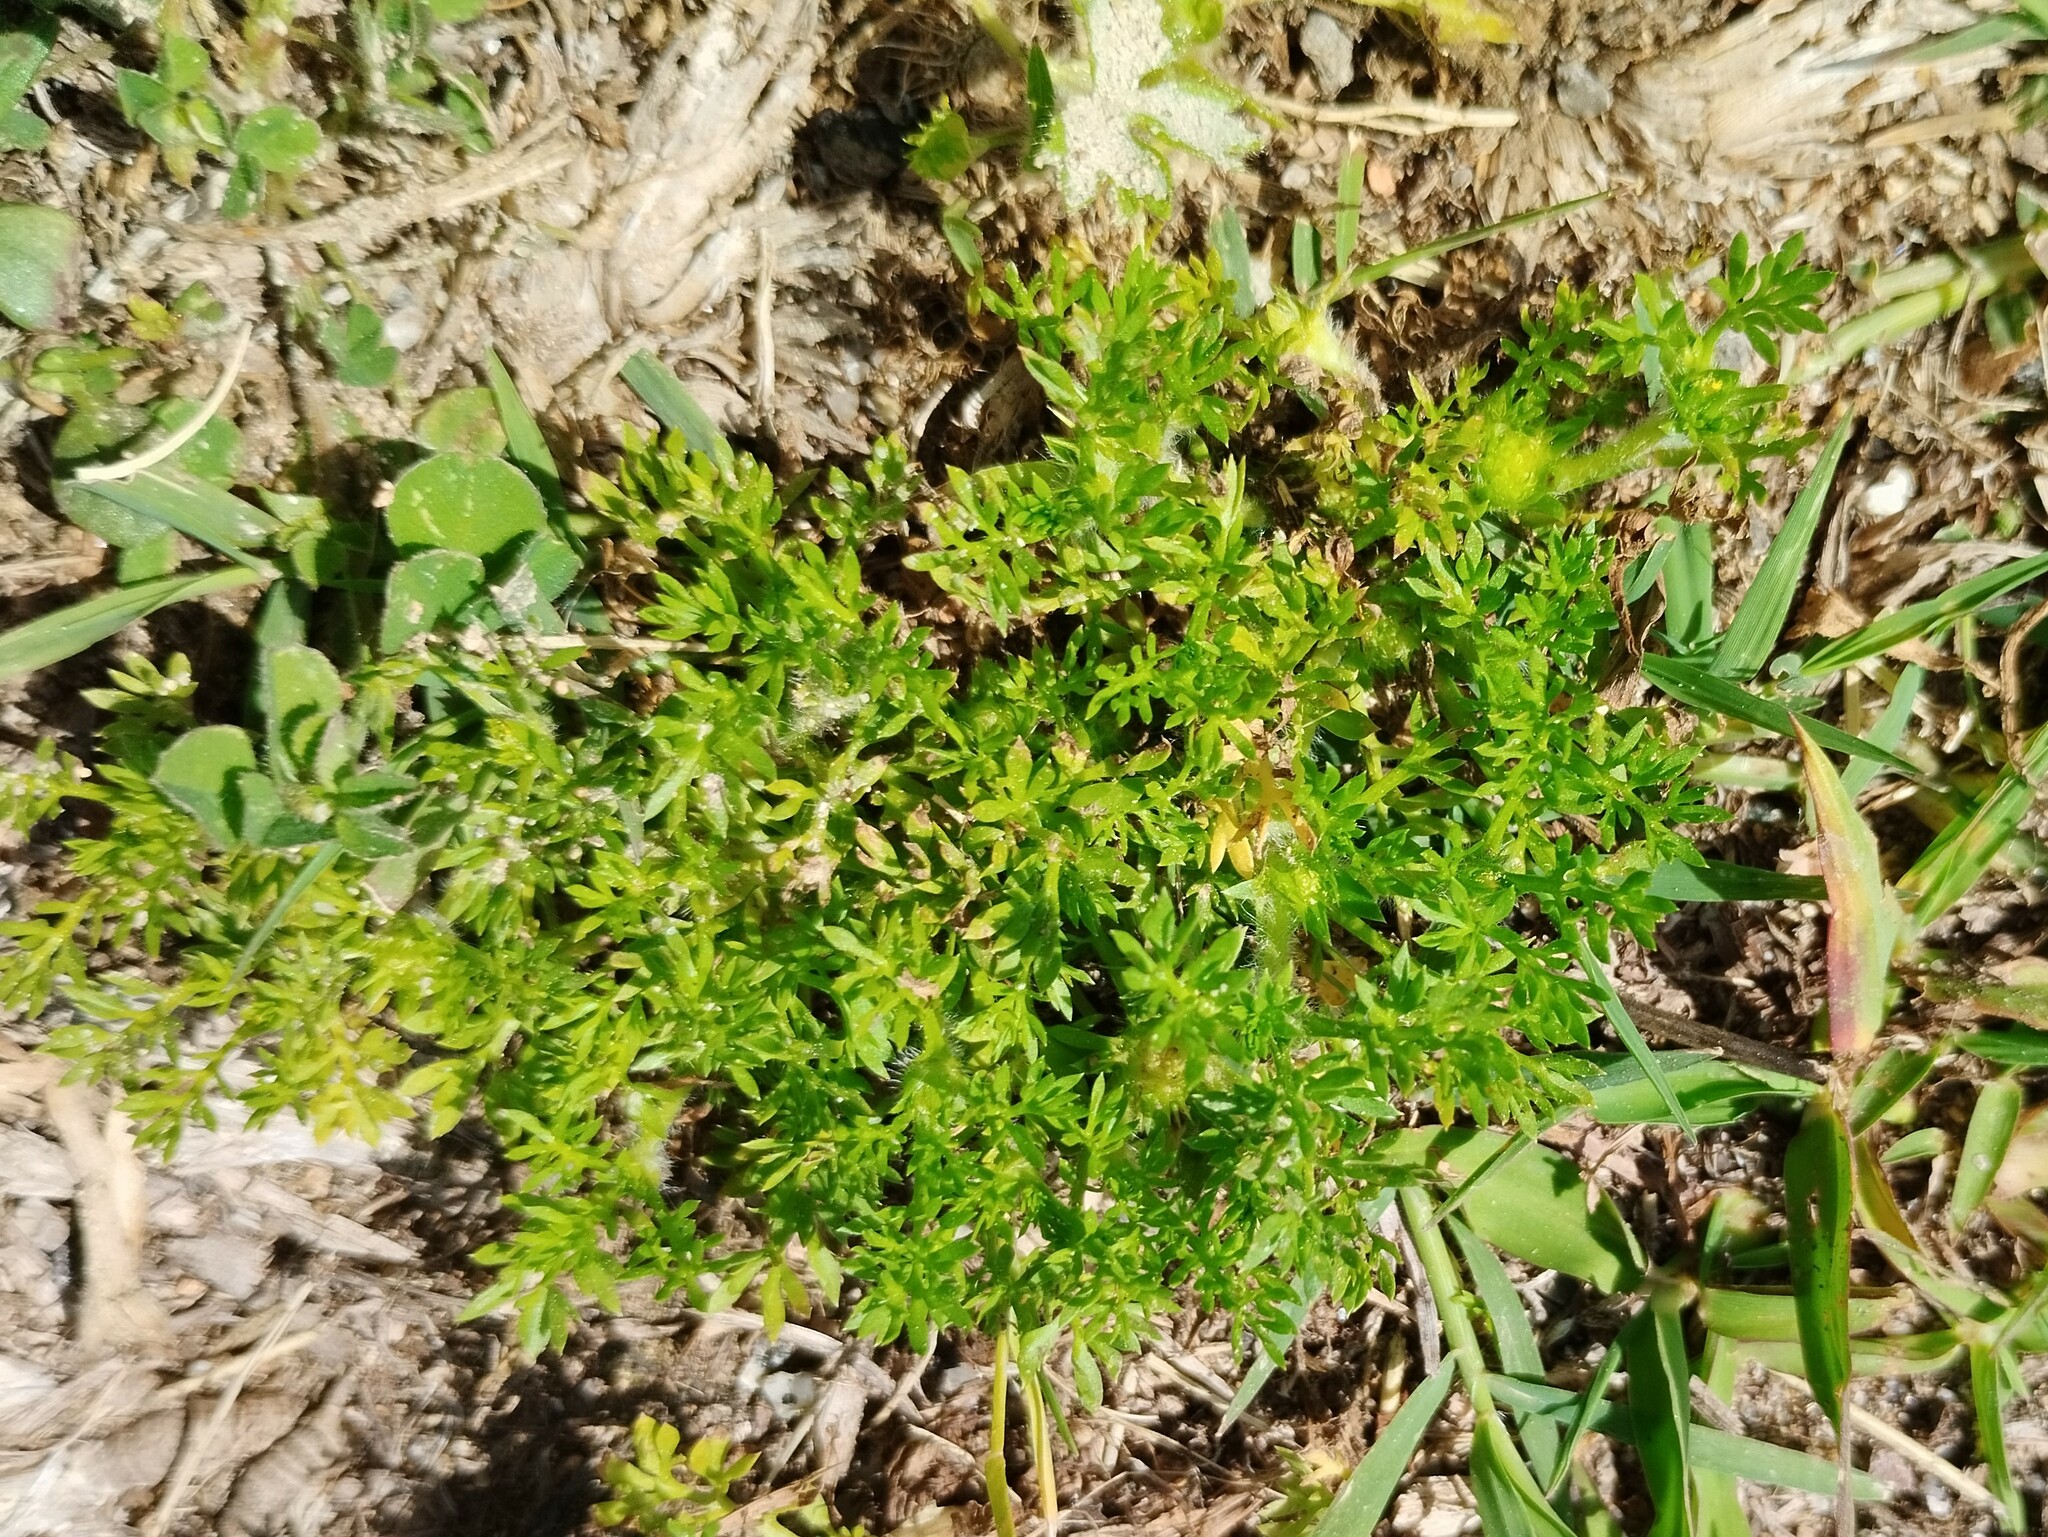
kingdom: Plantae
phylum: Tracheophyta
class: Magnoliopsida
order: Asterales
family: Asteraceae
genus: Soliva
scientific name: Soliva sessilis
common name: Field burrweed
